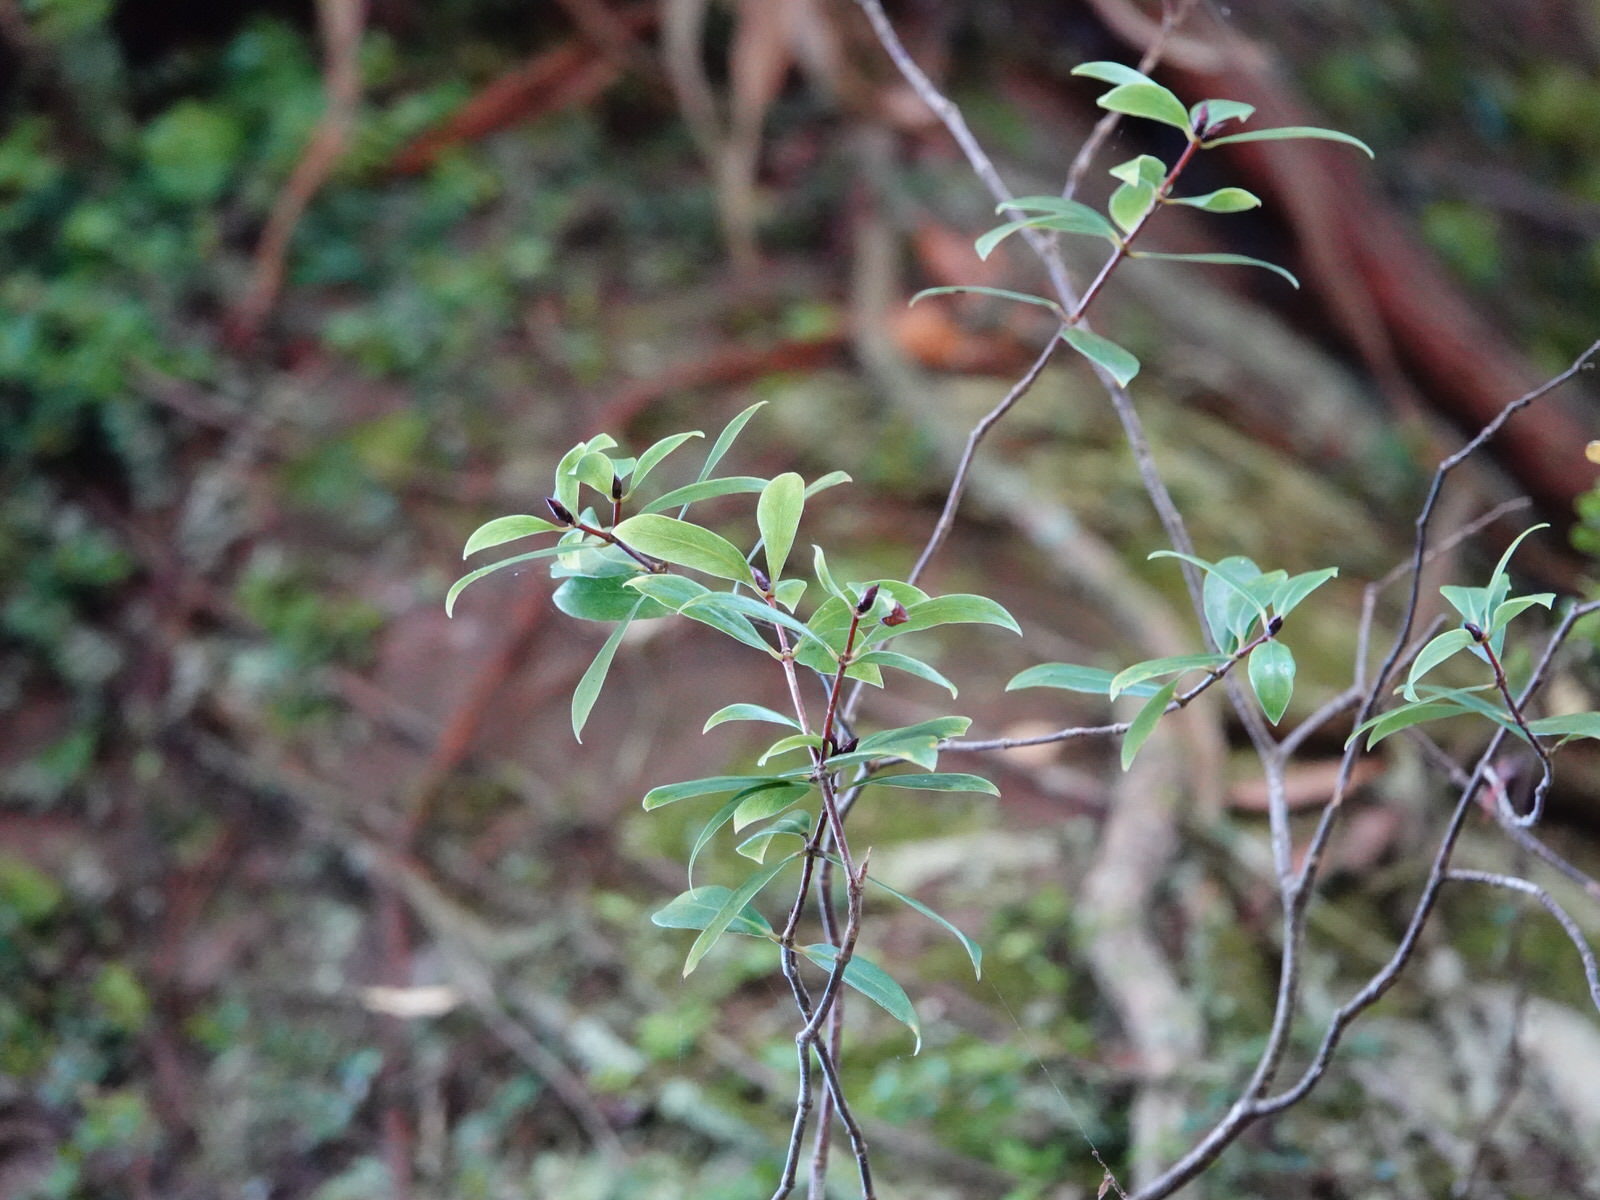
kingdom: Plantae
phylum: Tracheophyta
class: Magnoliopsida
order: Apiales
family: Pittosporaceae
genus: Pittosporum
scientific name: Pittosporum cornifolium
